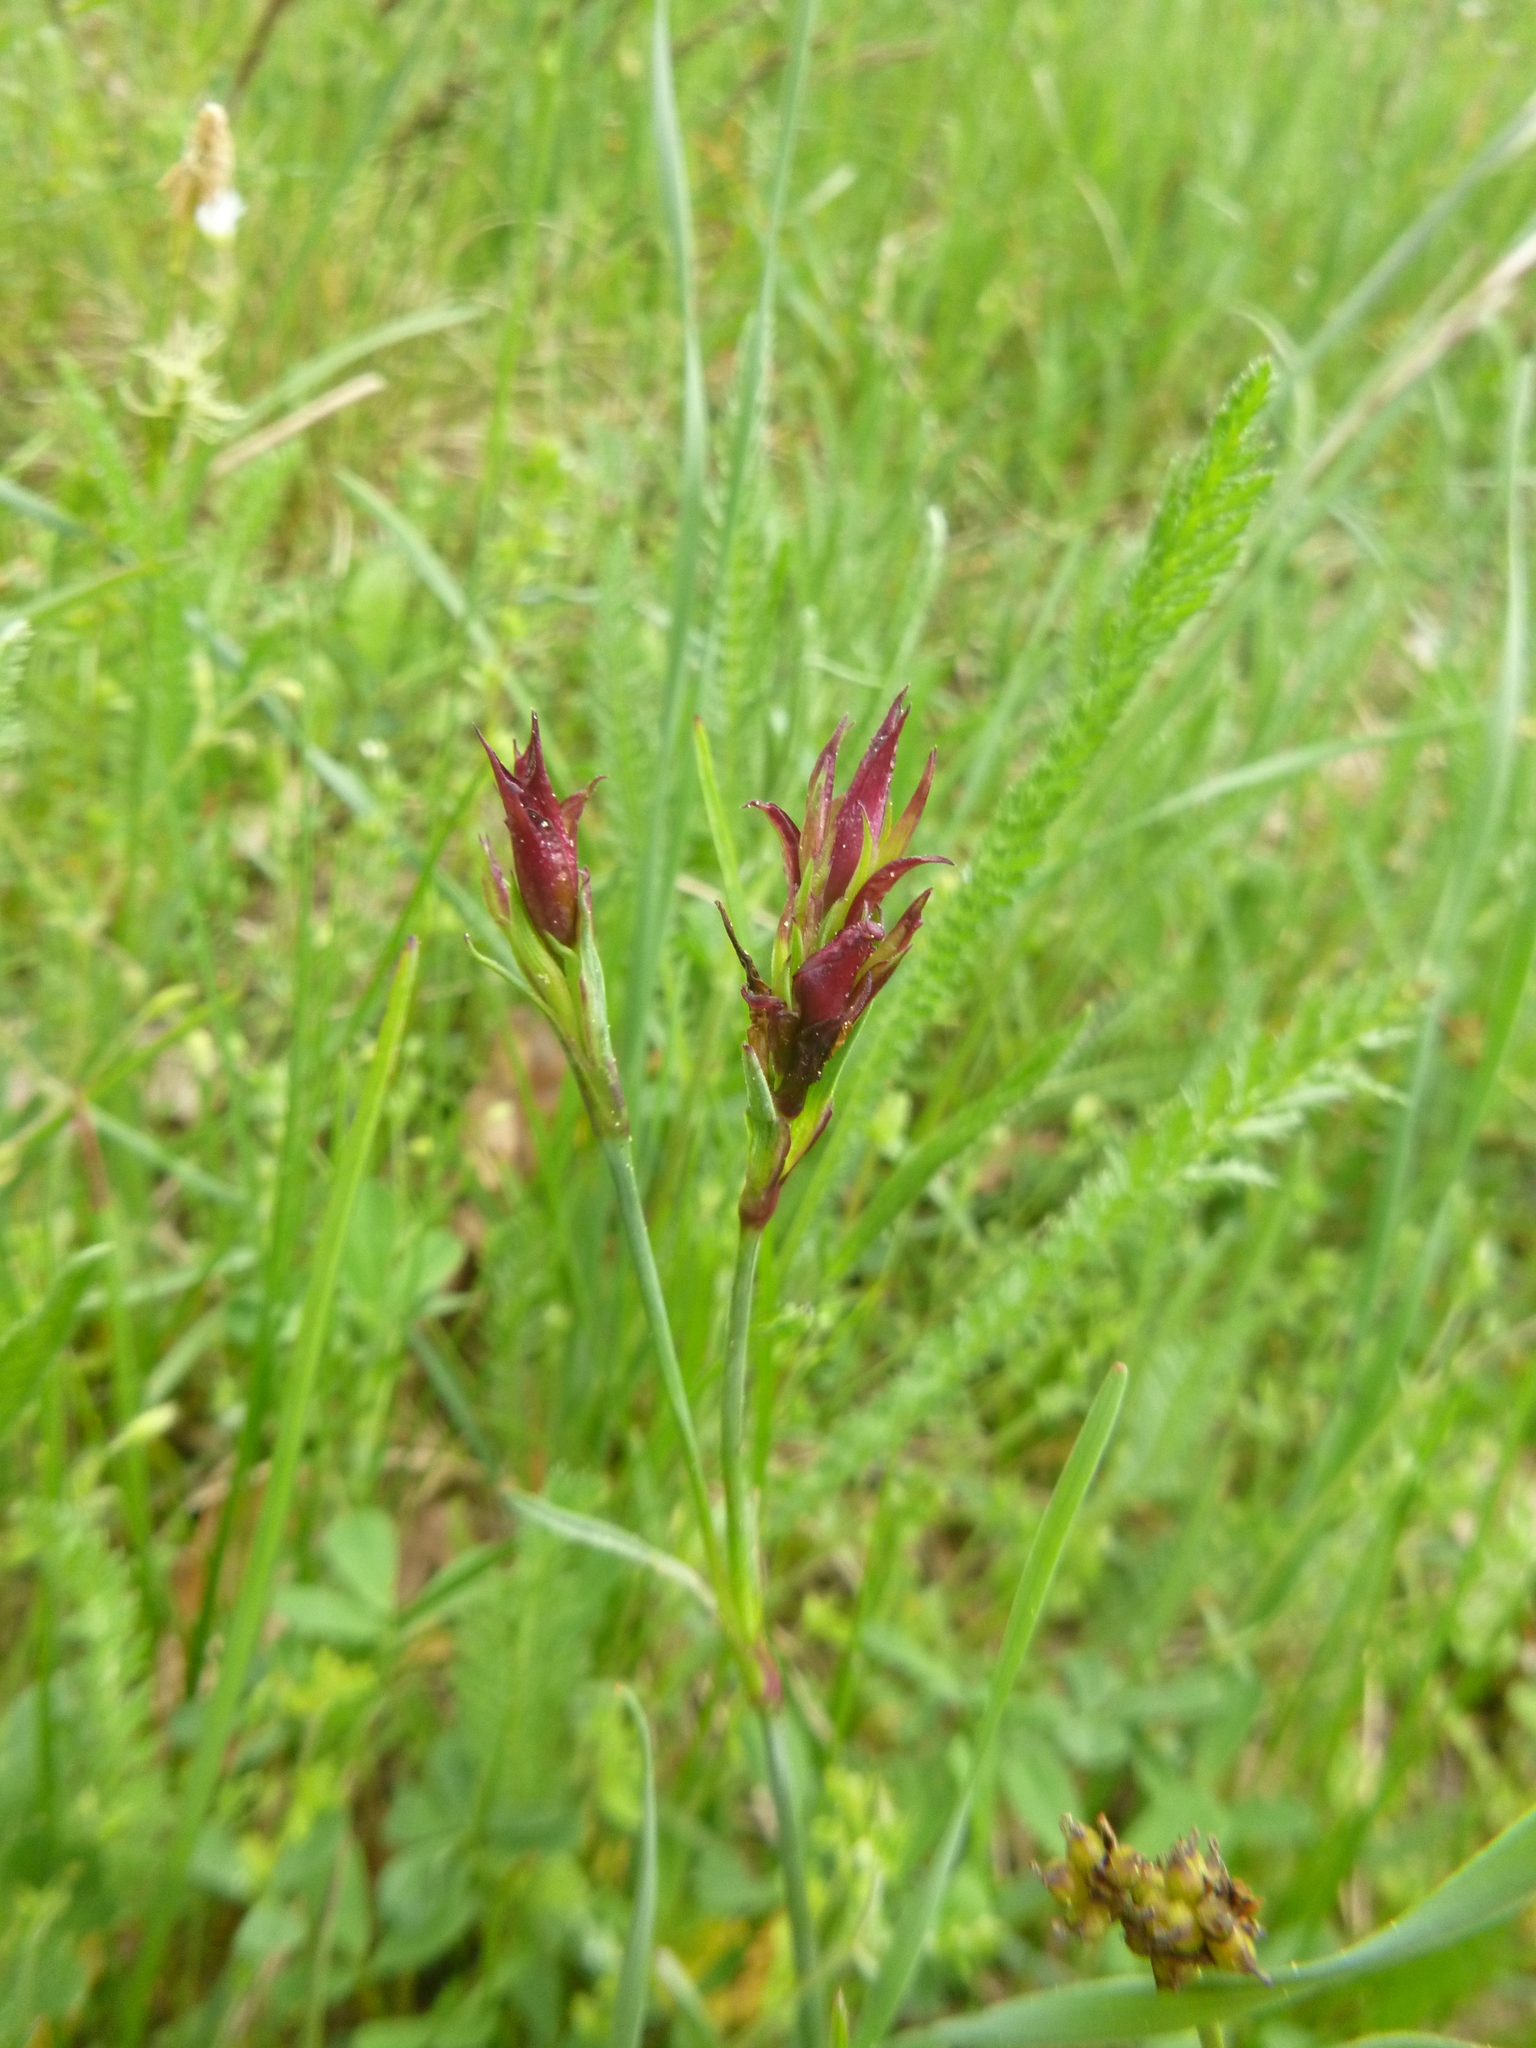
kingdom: Plantae
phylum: Tracheophyta
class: Magnoliopsida
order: Caryophyllales
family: Caryophyllaceae
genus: Dianthus
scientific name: Dianthus carthusianorum
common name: Carthusian pink
